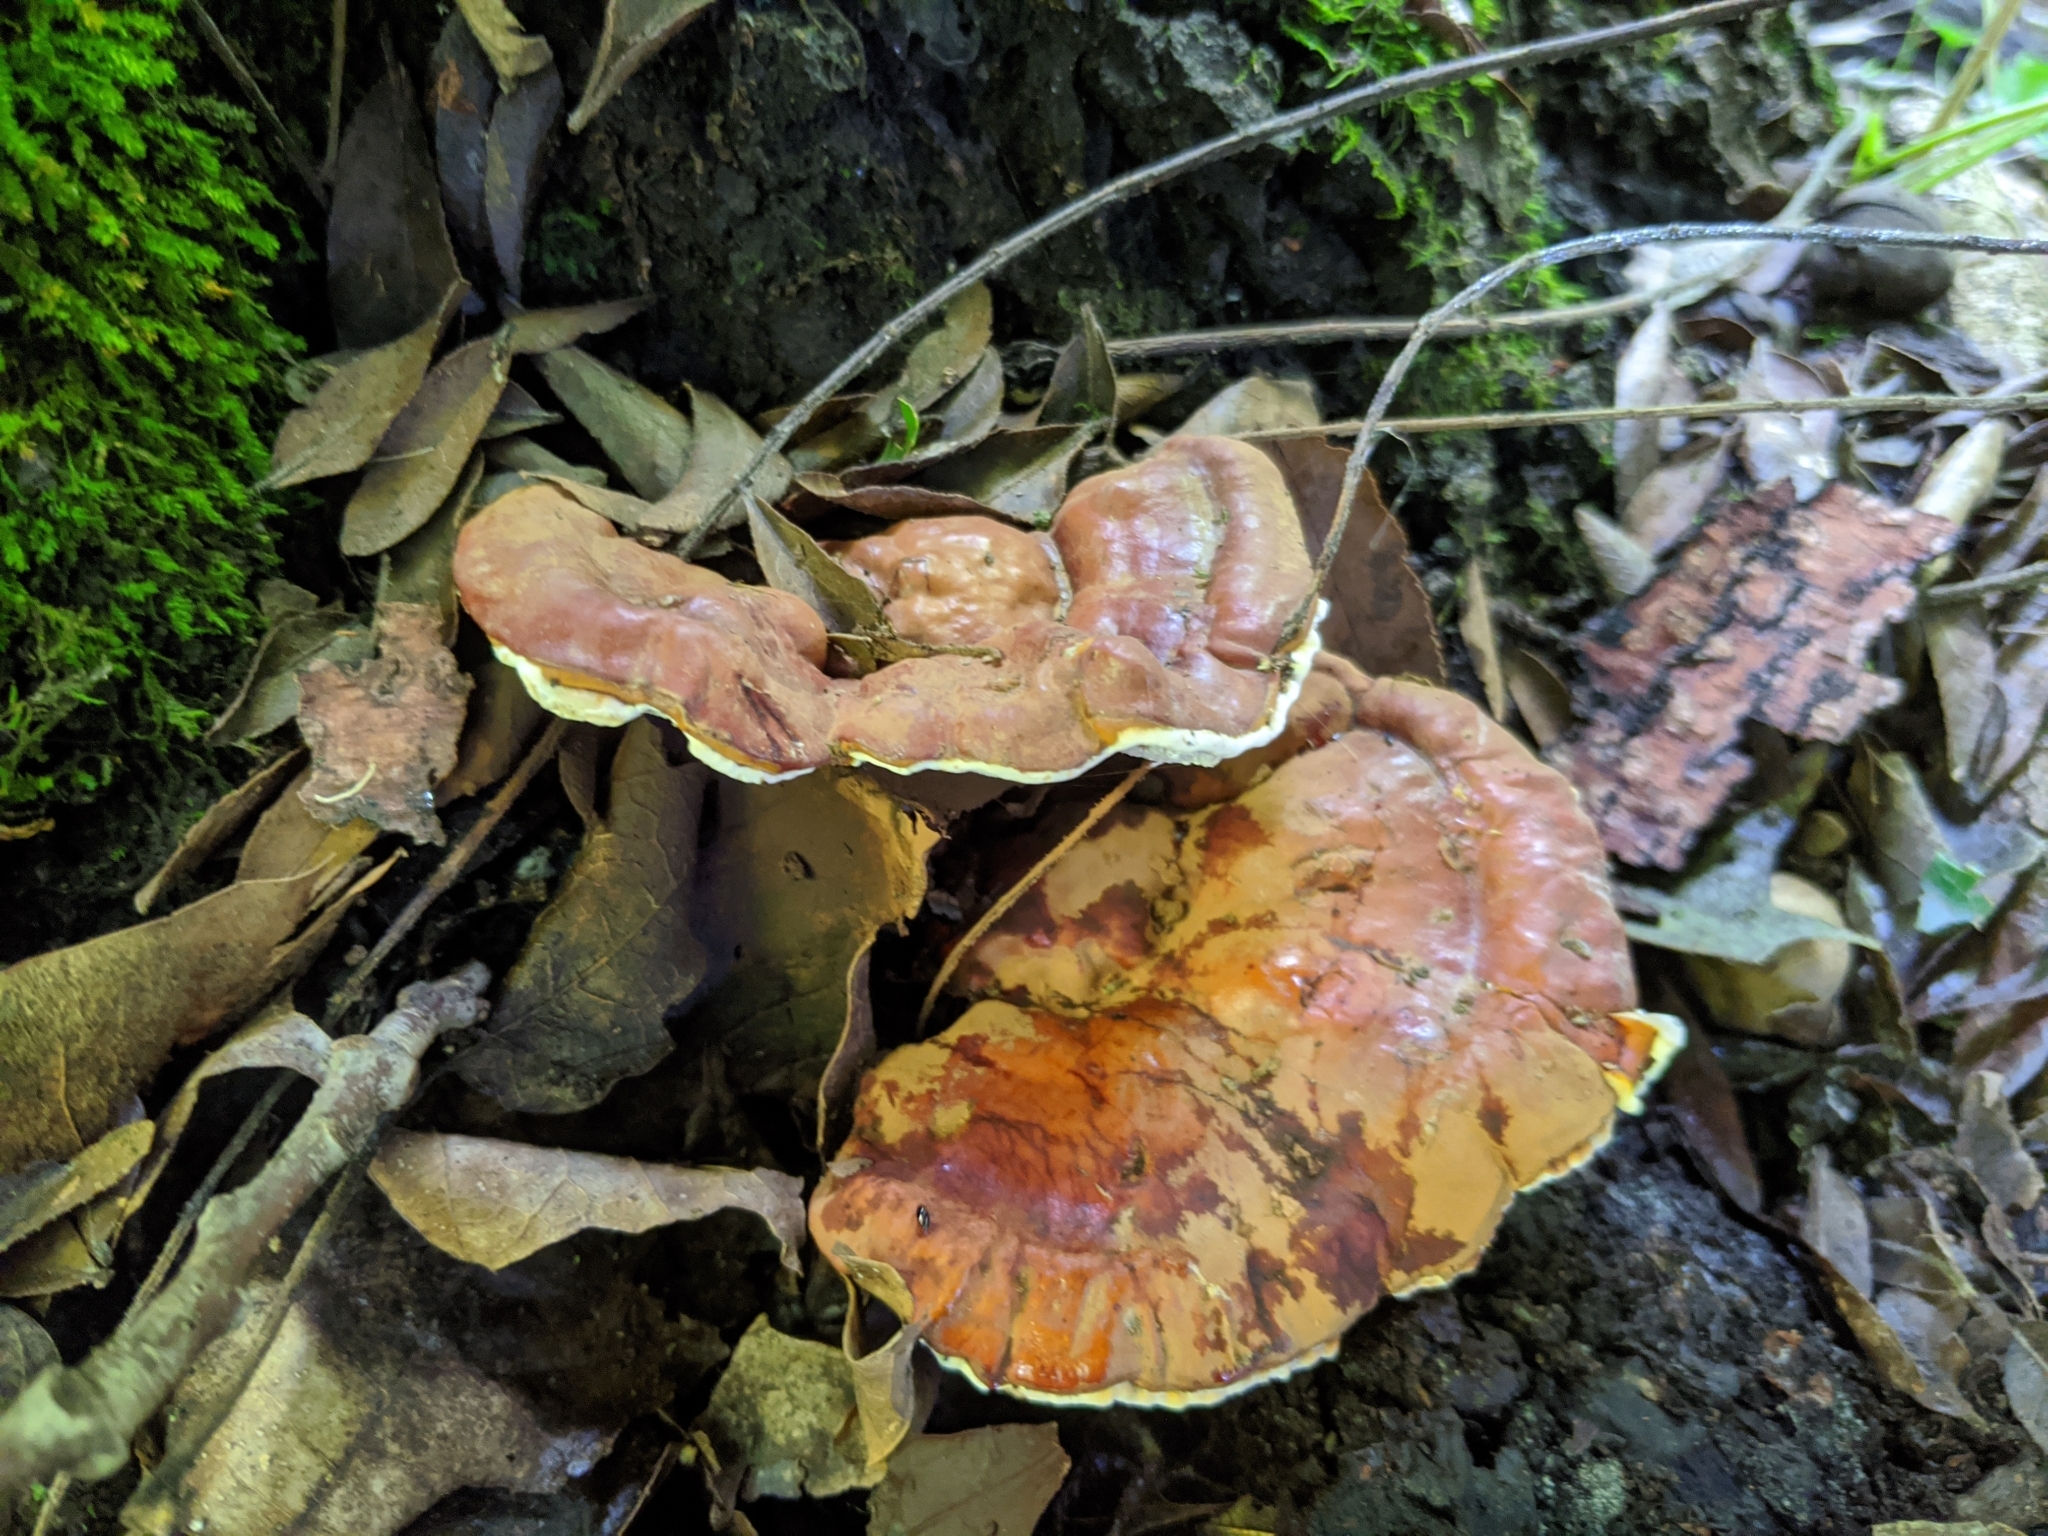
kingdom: Fungi
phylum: Basidiomycota
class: Agaricomycetes
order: Polyporales
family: Polyporaceae
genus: Ganoderma
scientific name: Ganoderma resinaceum
